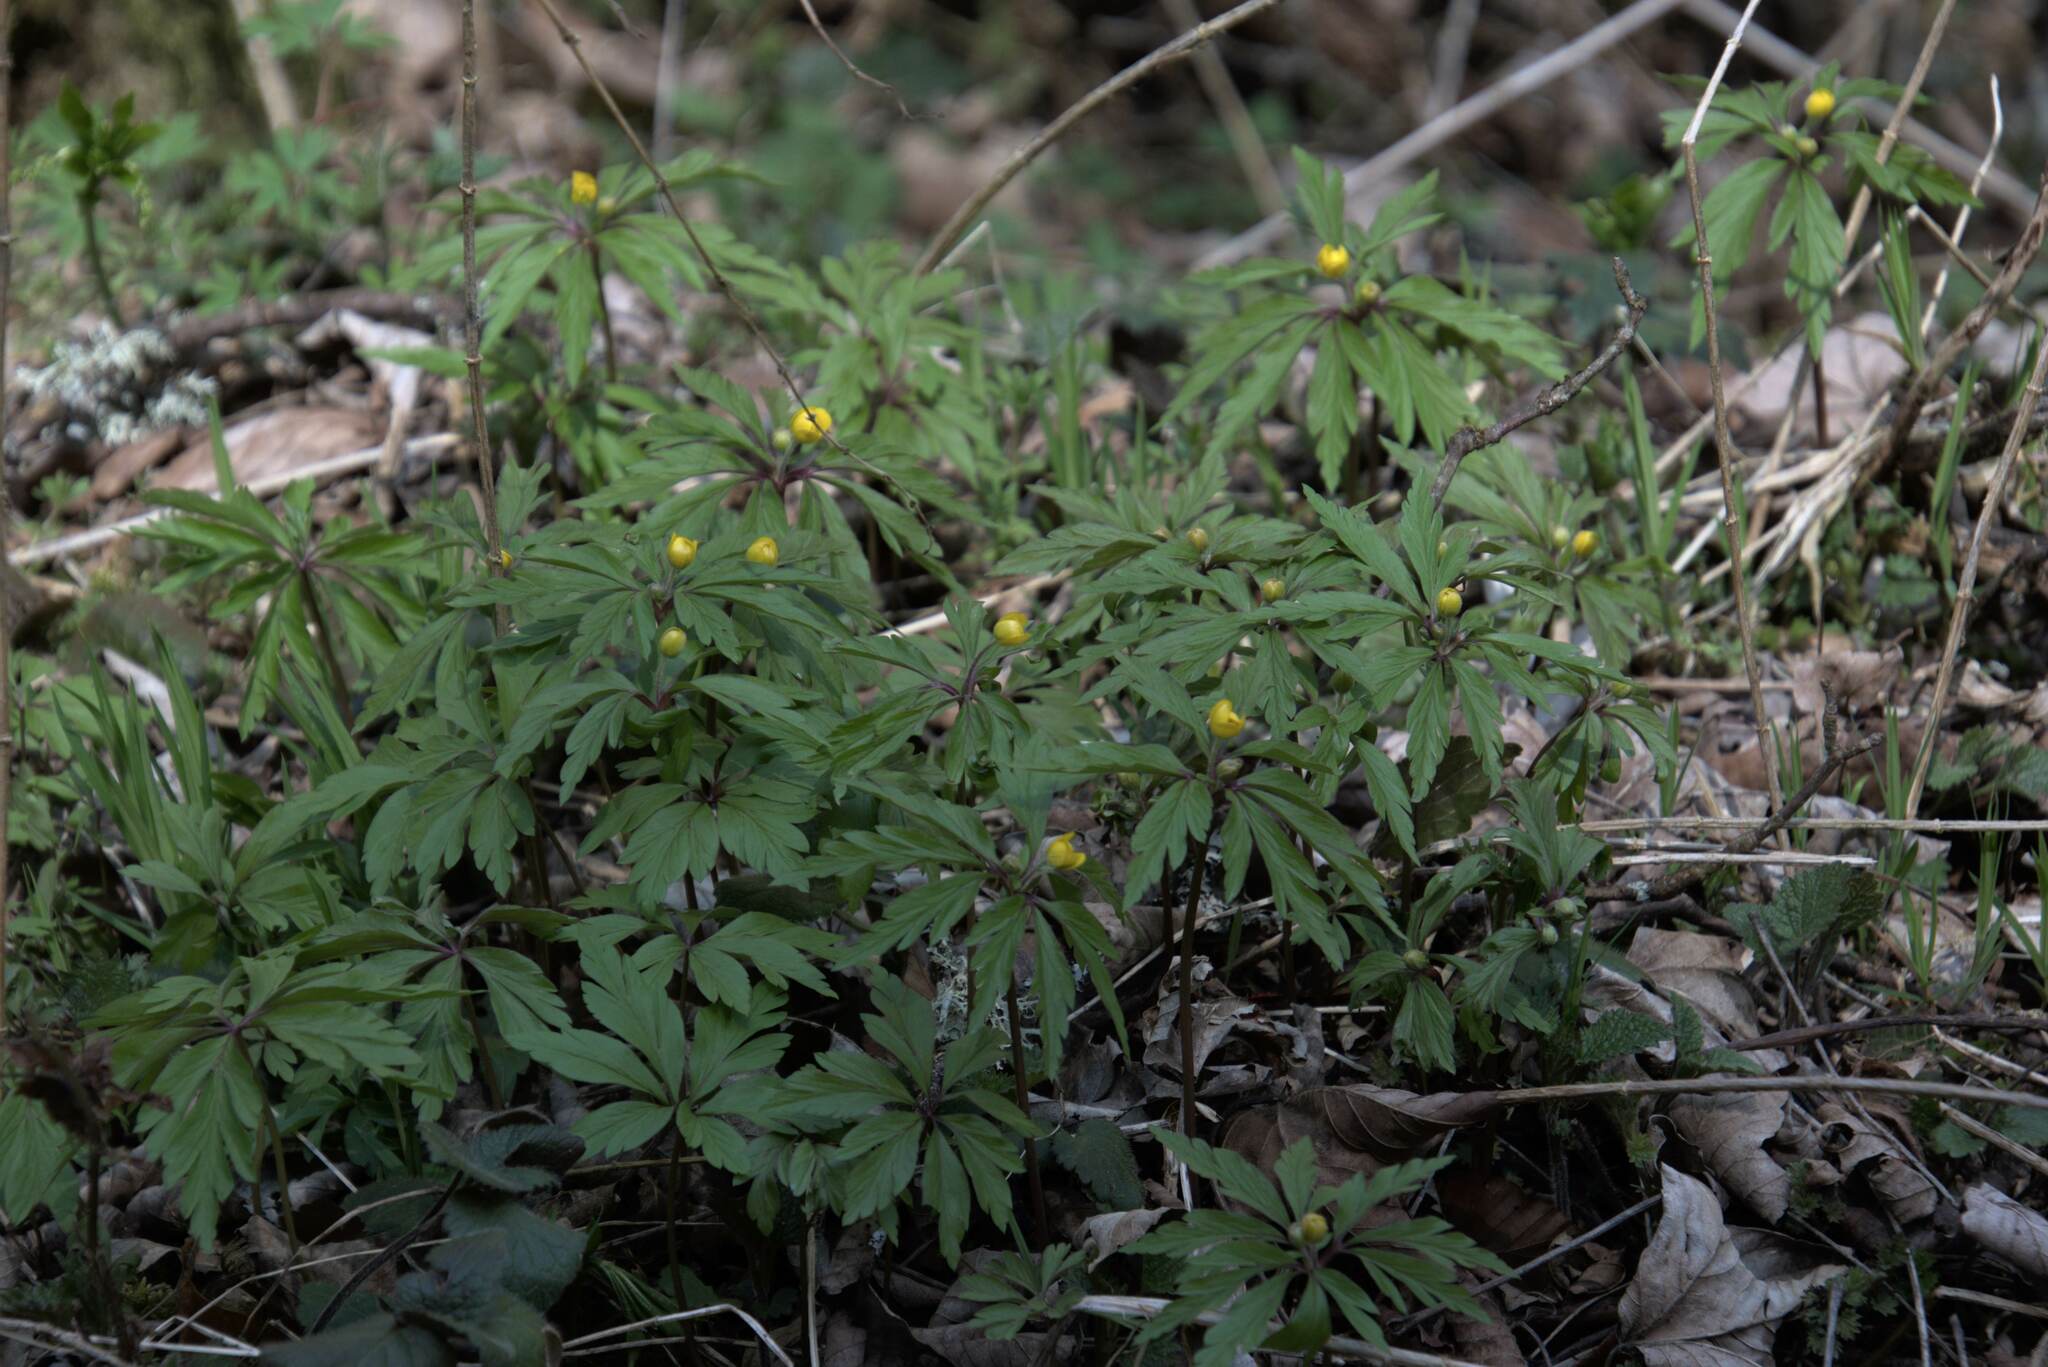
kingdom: Plantae
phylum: Tracheophyta
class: Magnoliopsida
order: Ranunculales
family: Ranunculaceae
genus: Anemone
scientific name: Anemone ranunculoides
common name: Yellow anemone
